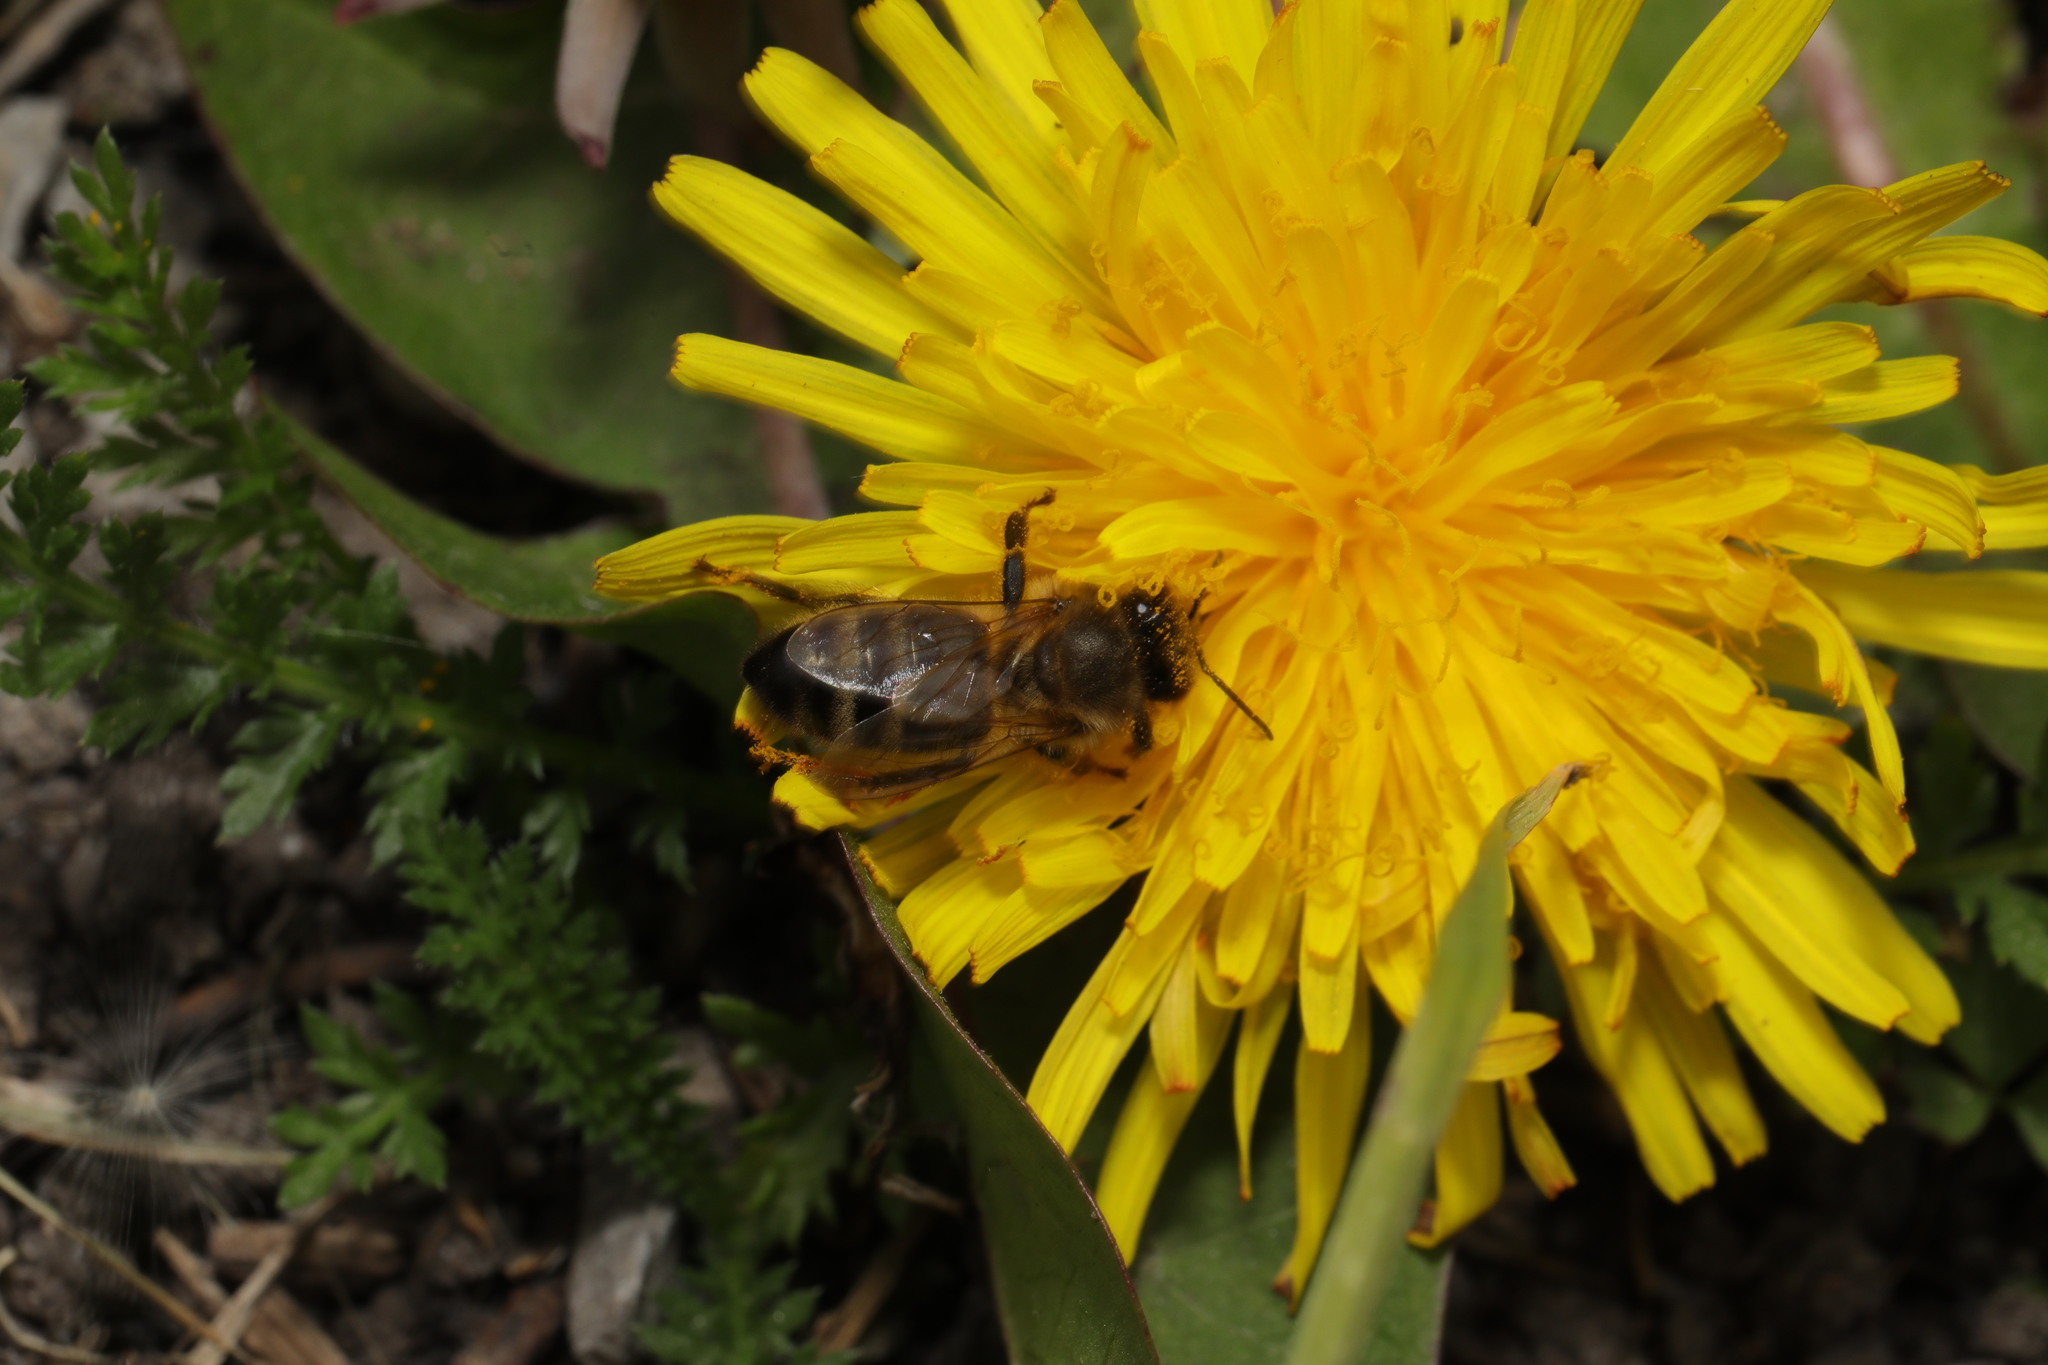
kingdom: Animalia
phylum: Arthropoda
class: Insecta
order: Hymenoptera
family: Apidae
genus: Apis
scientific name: Apis mellifera
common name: Honey bee
